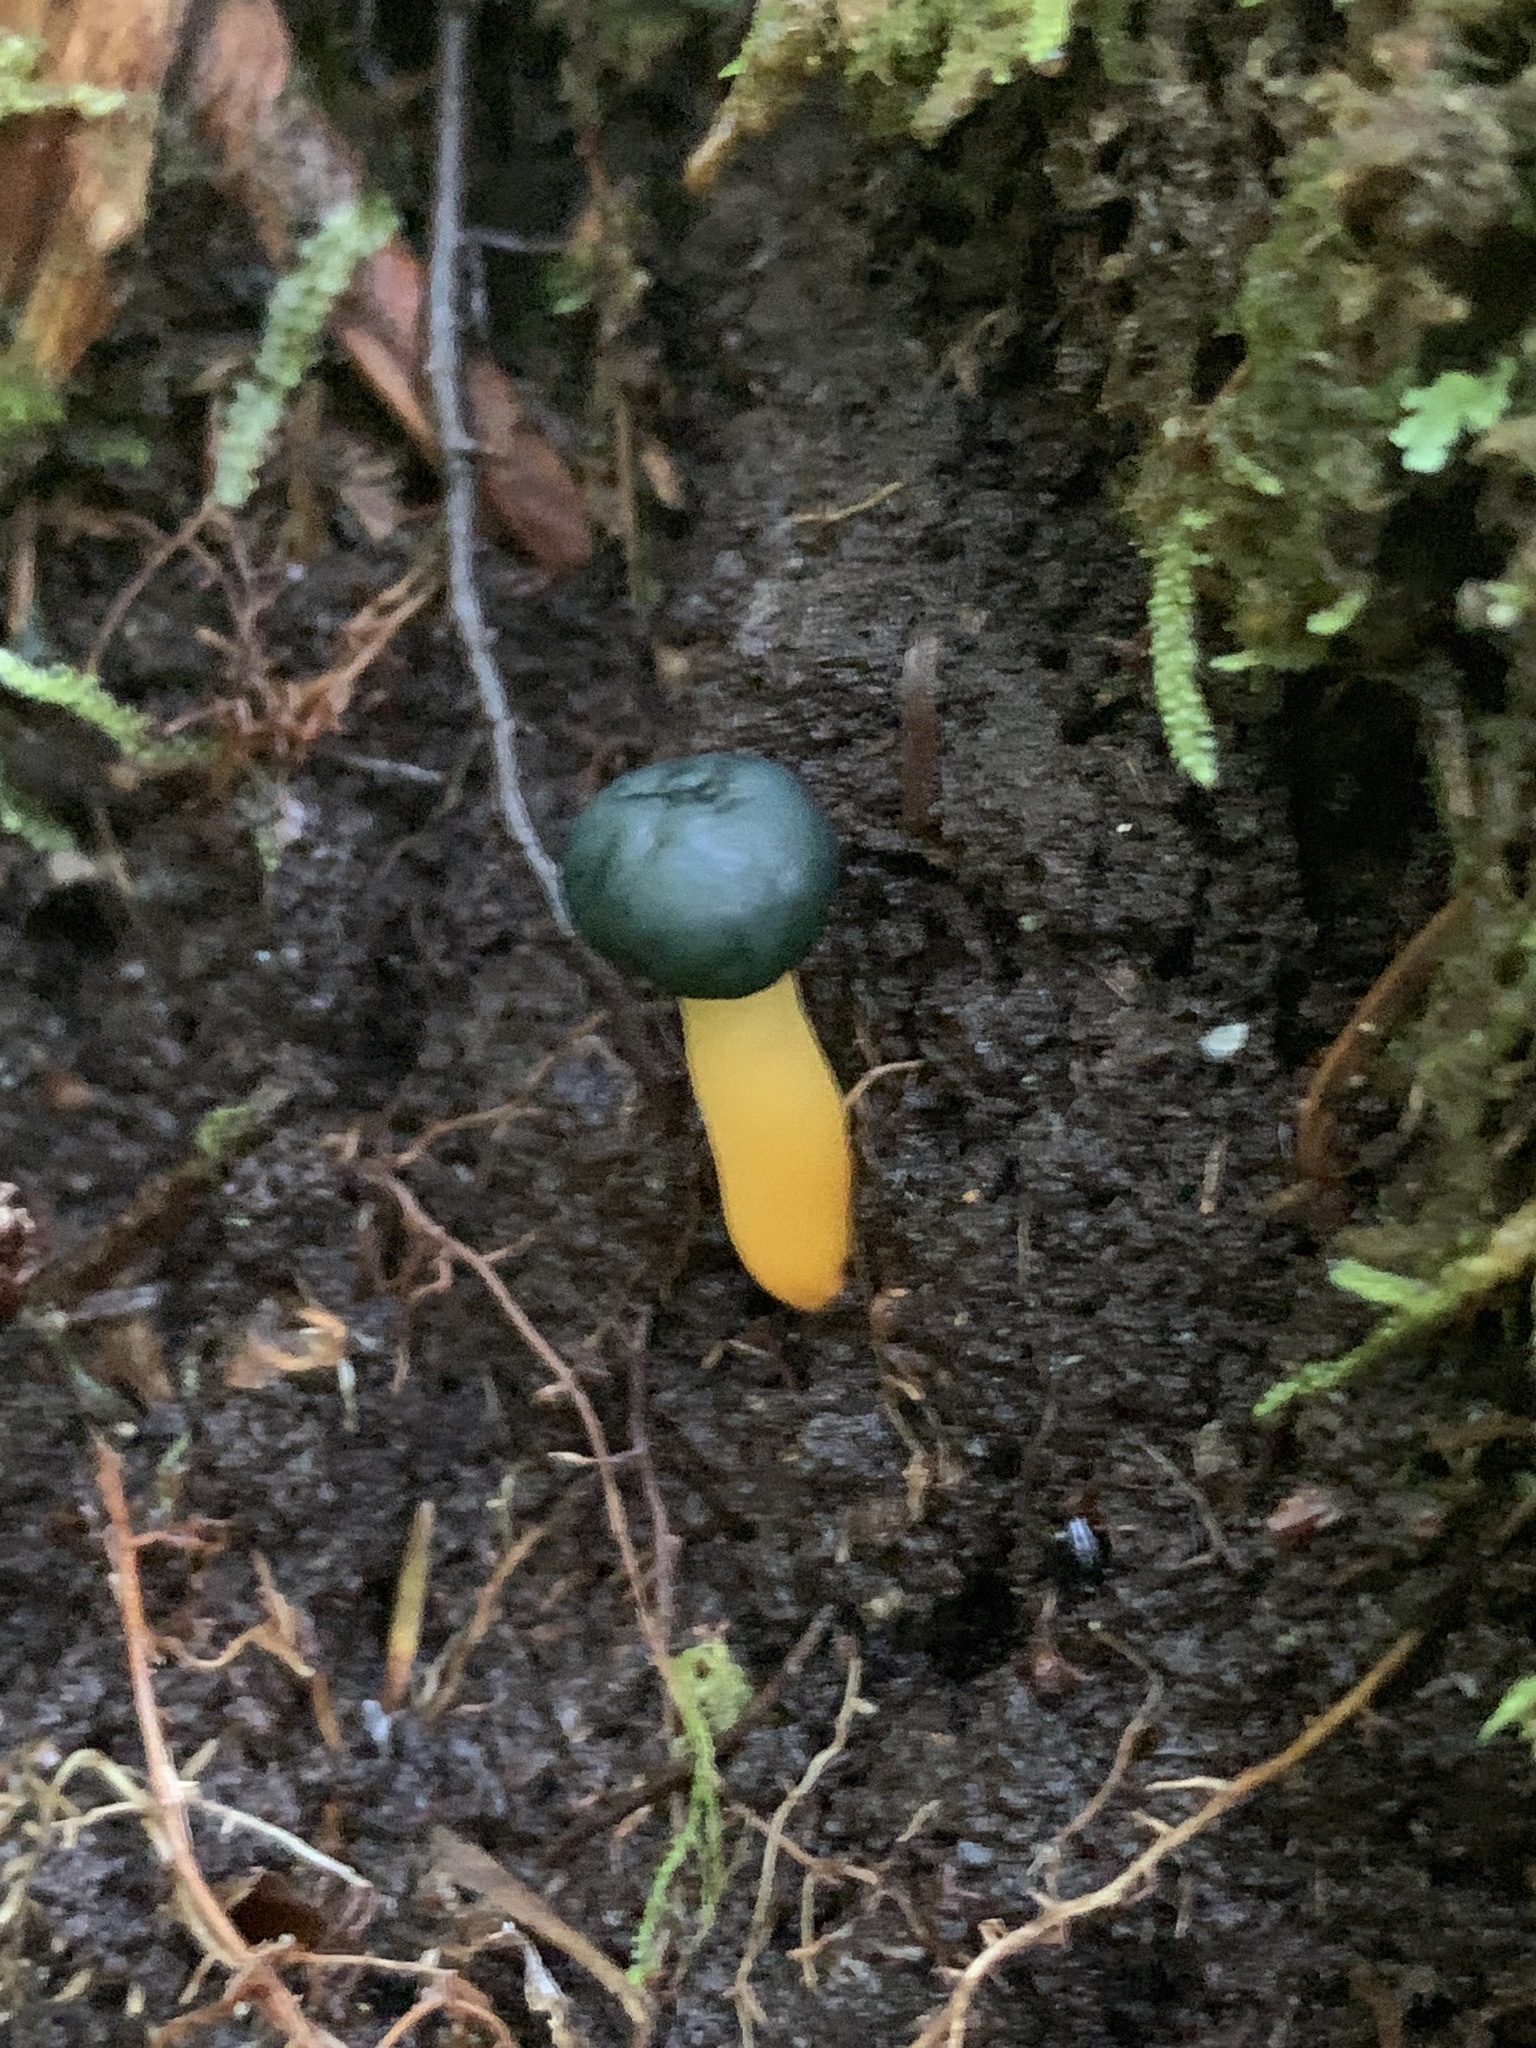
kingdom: Fungi
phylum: Ascomycota
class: Leotiomycetes
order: Leotiales
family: Leotiaceae
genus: Leotia
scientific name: Leotia lubrica
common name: Jellybaby
